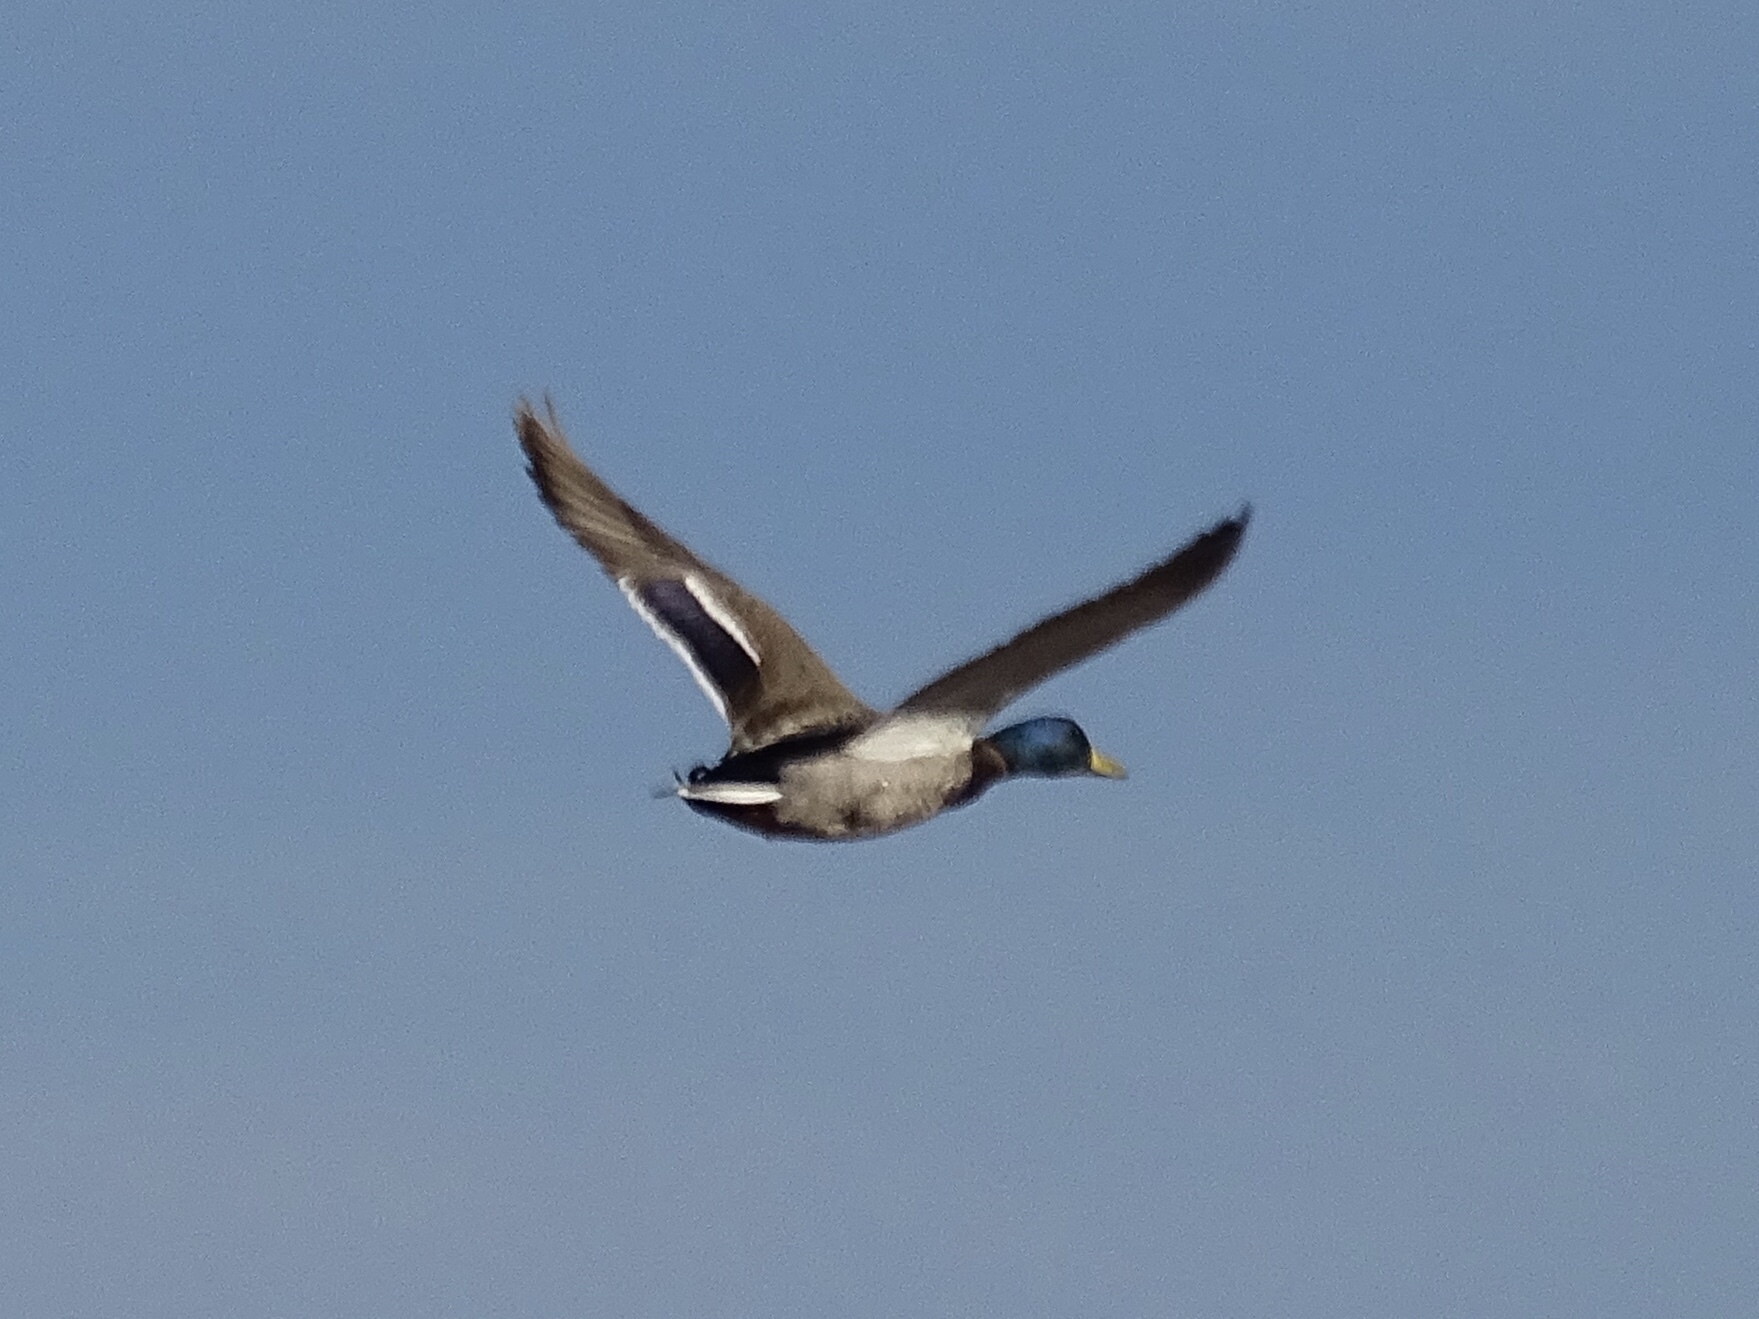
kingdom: Animalia
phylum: Chordata
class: Aves
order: Anseriformes
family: Anatidae
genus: Anas
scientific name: Anas platyrhynchos
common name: Mallard
